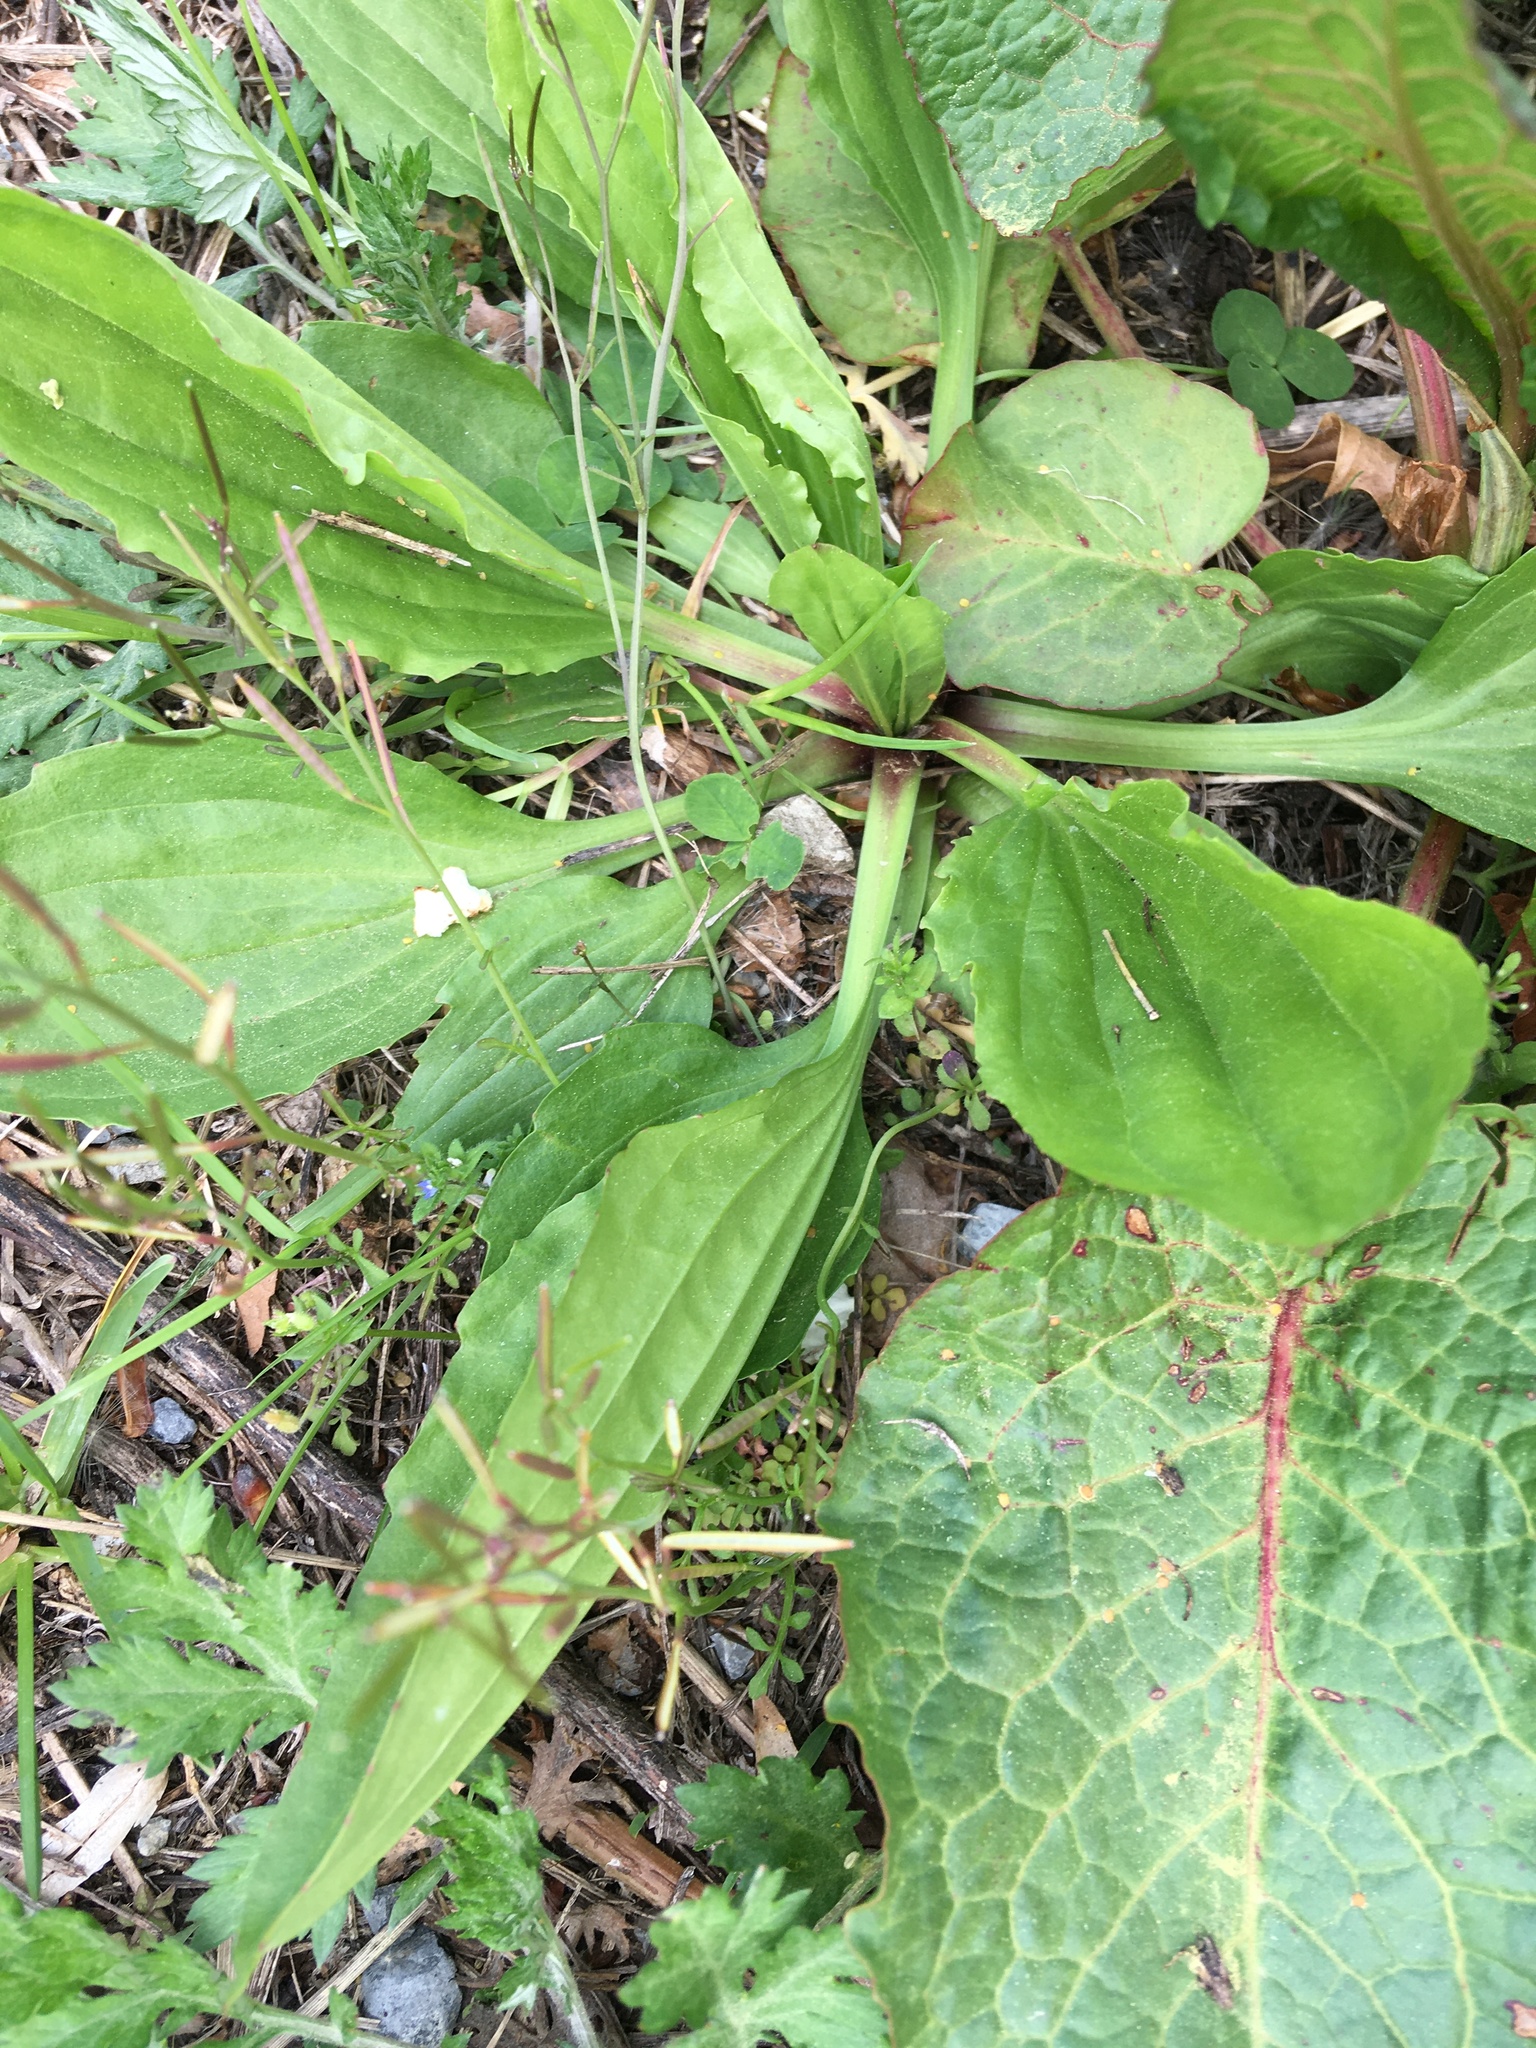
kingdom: Plantae
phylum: Tracheophyta
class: Magnoliopsida
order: Lamiales
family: Plantaginaceae
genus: Plantago
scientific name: Plantago rugelii
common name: American plantain
